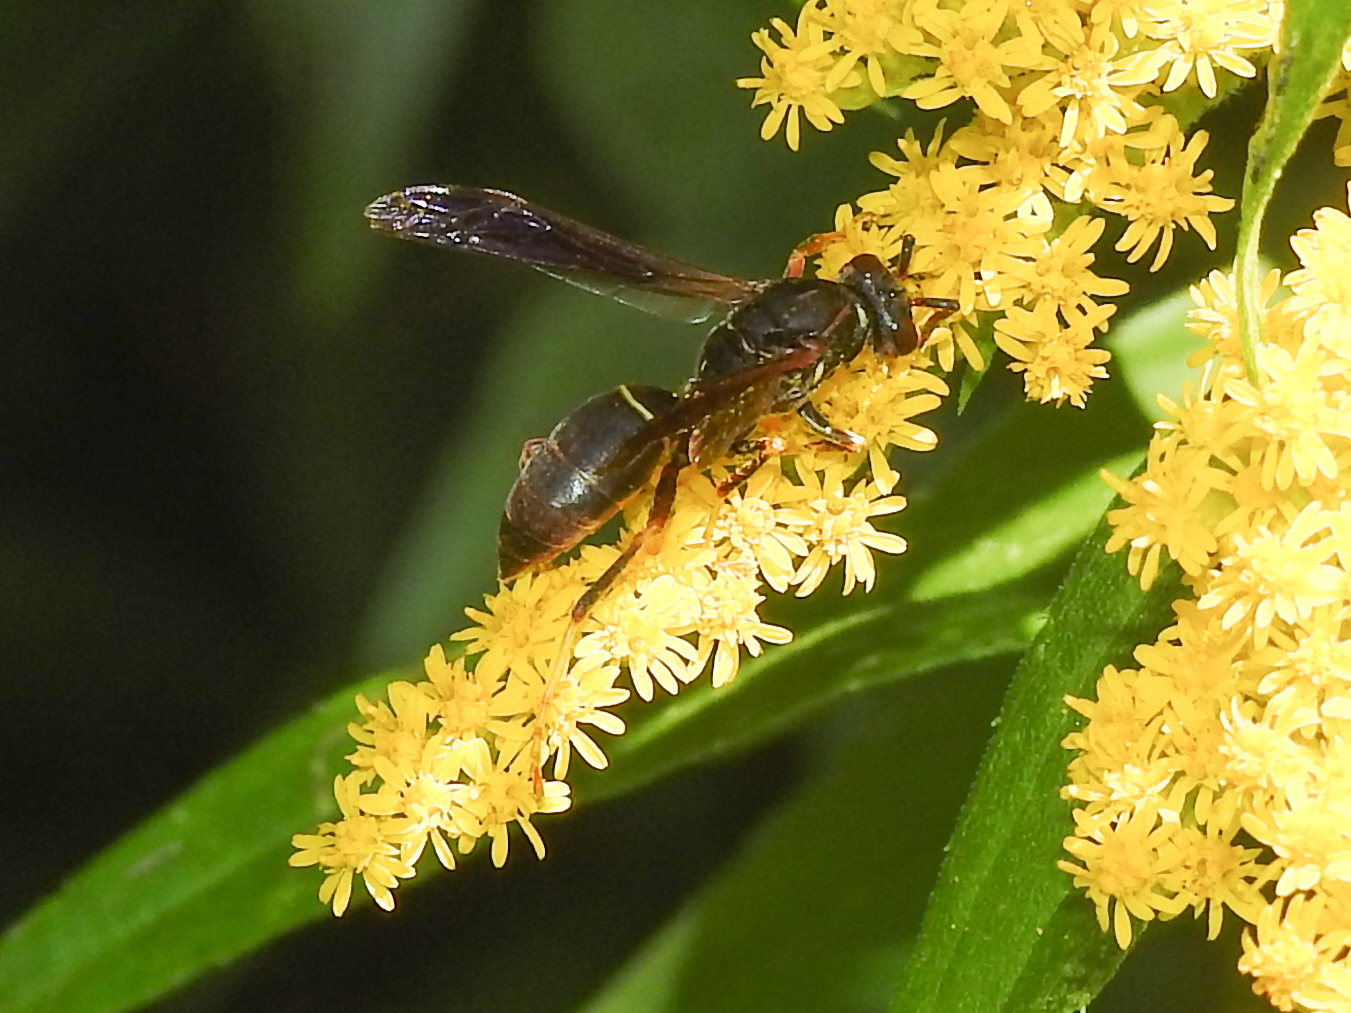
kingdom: Animalia
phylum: Arthropoda
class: Insecta
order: Hymenoptera
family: Eumenidae
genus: Polistes
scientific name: Polistes fuscatus
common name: Dark paper wasp
